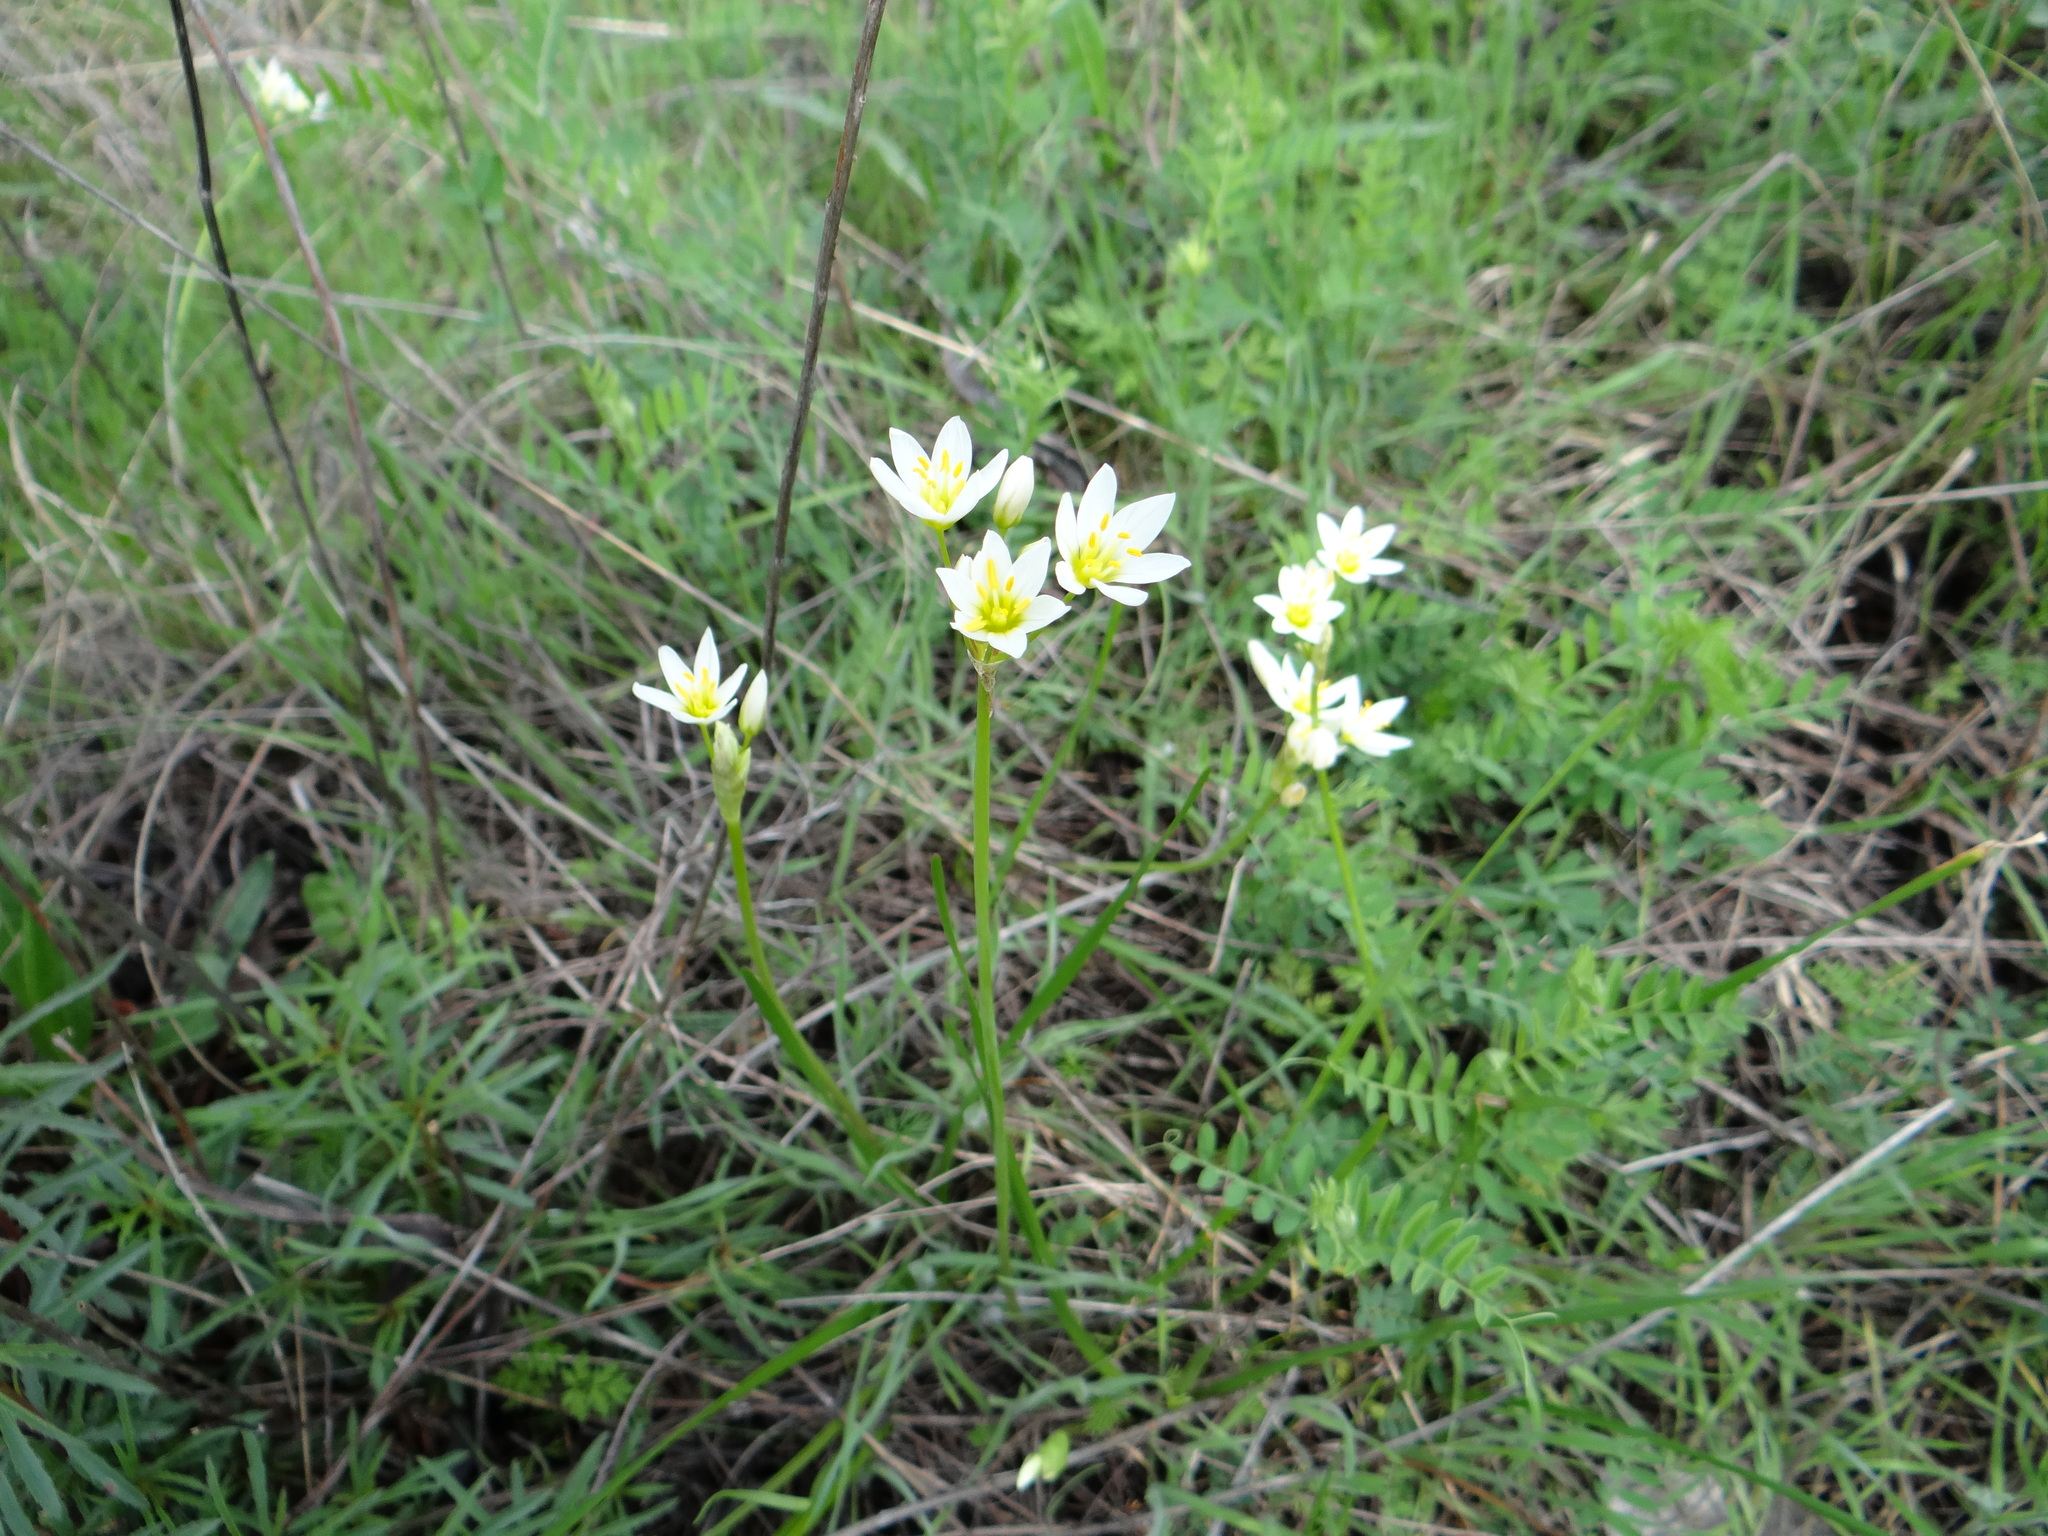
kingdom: Plantae
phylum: Tracheophyta
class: Liliopsida
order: Asparagales
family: Amaryllidaceae
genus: Nothoscordum
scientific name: Nothoscordum bivalve
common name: Crow-poison
